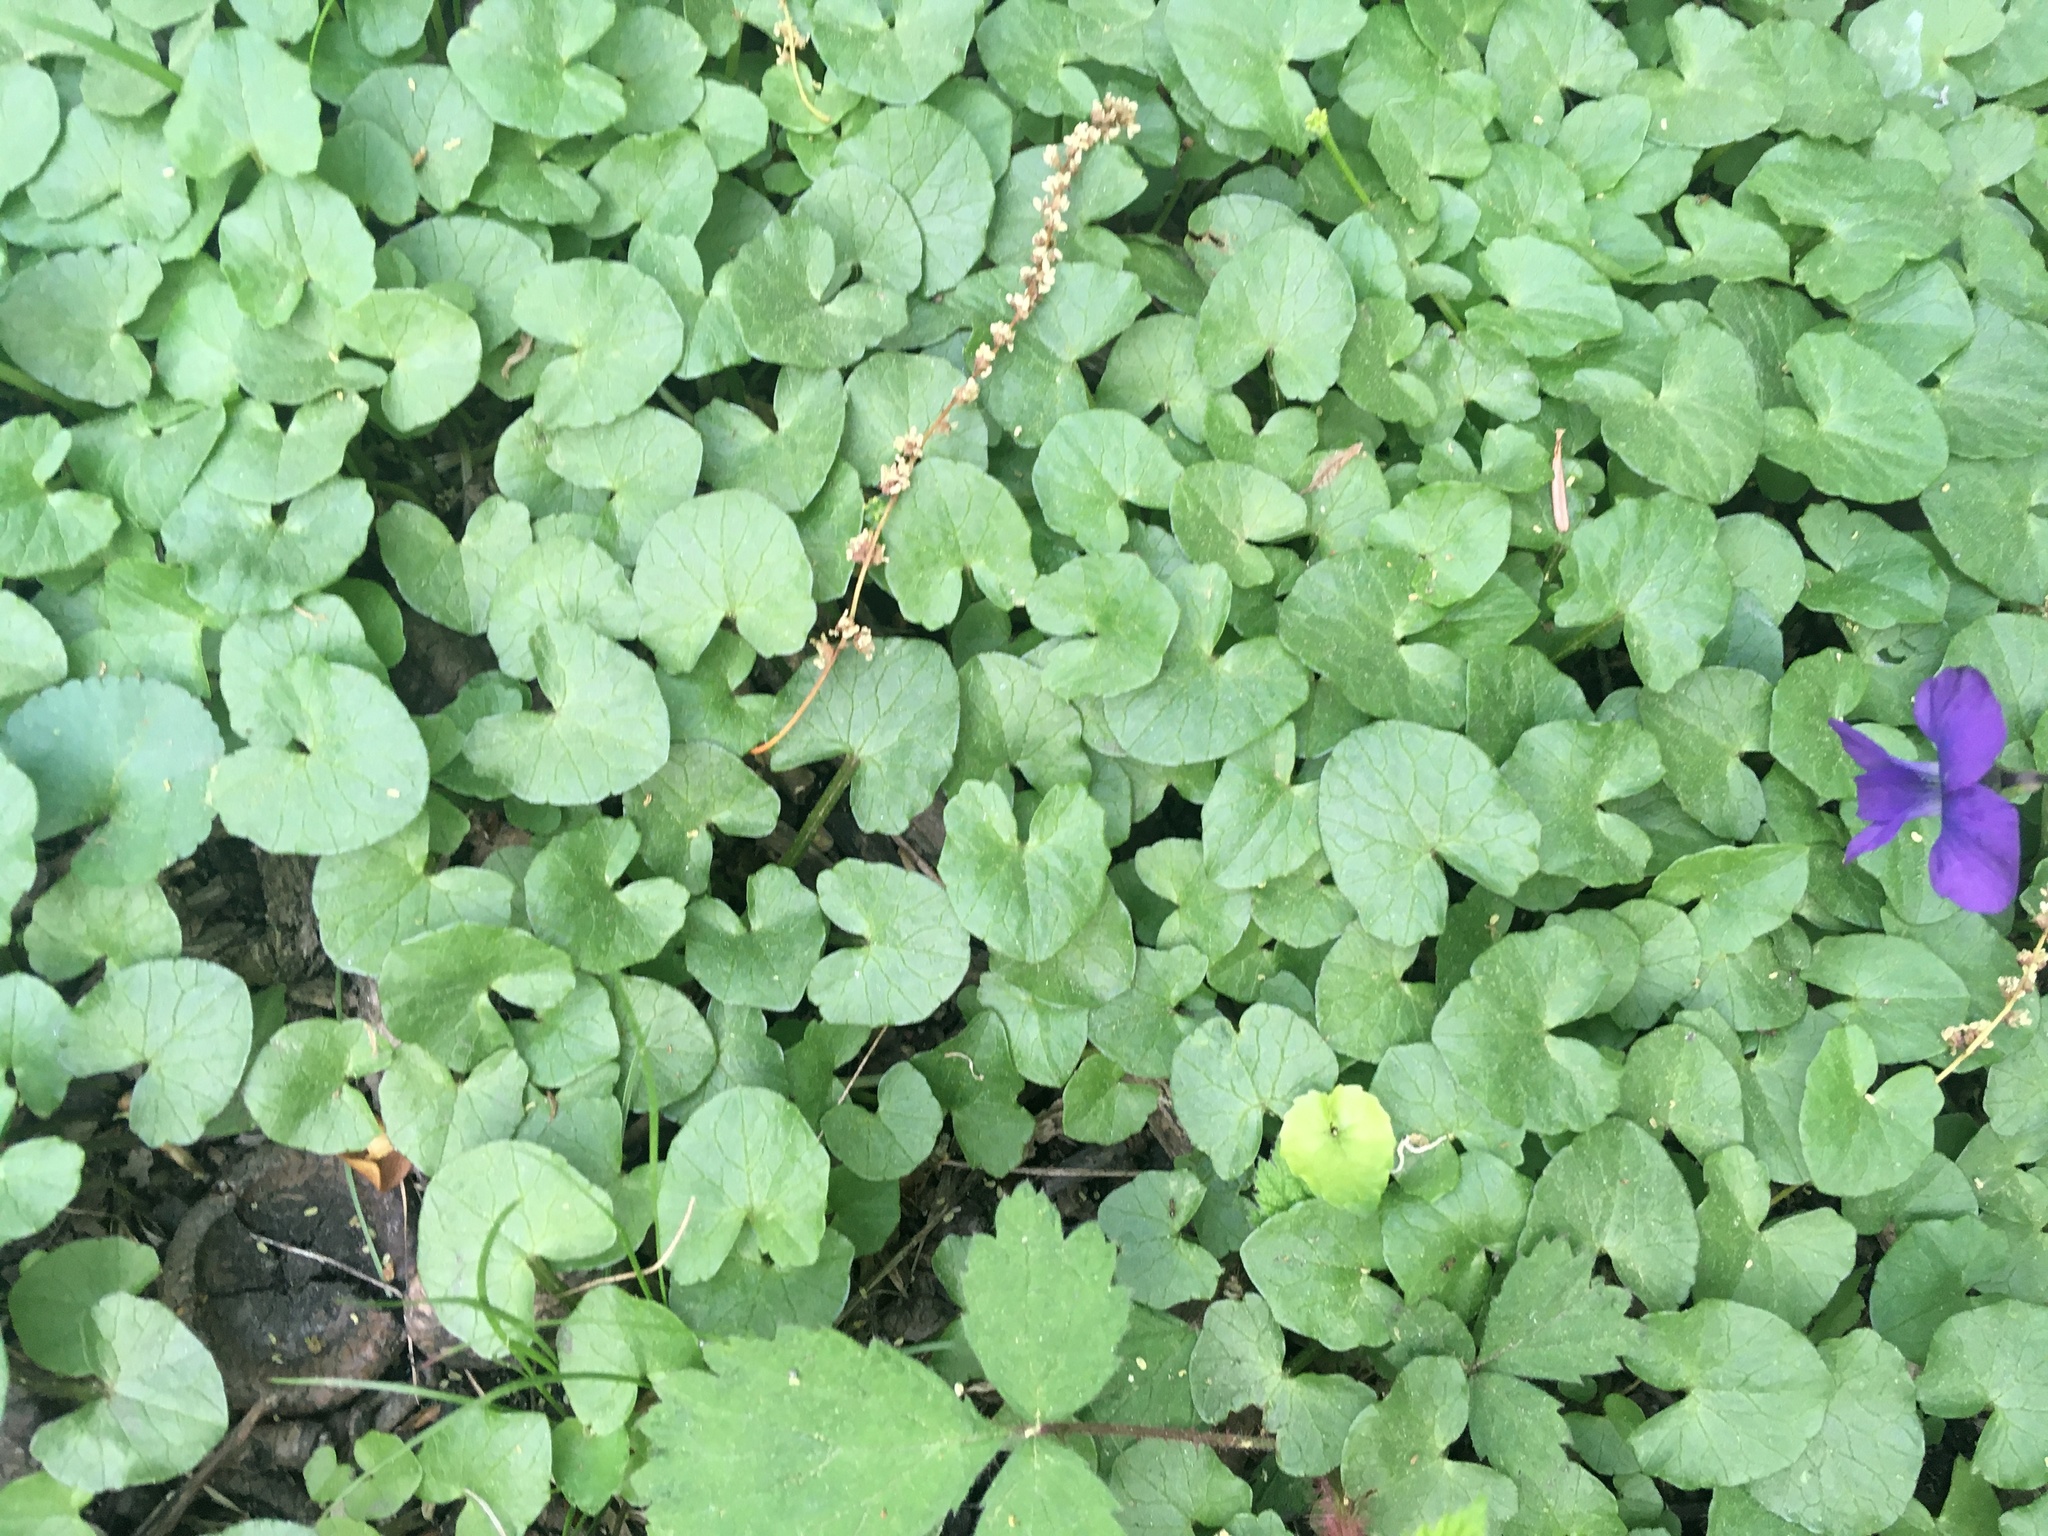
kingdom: Plantae
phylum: Tracheophyta
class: Magnoliopsida
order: Ranunculales
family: Ranunculaceae
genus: Ficaria
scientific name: Ficaria verna
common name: Lesser celandine
